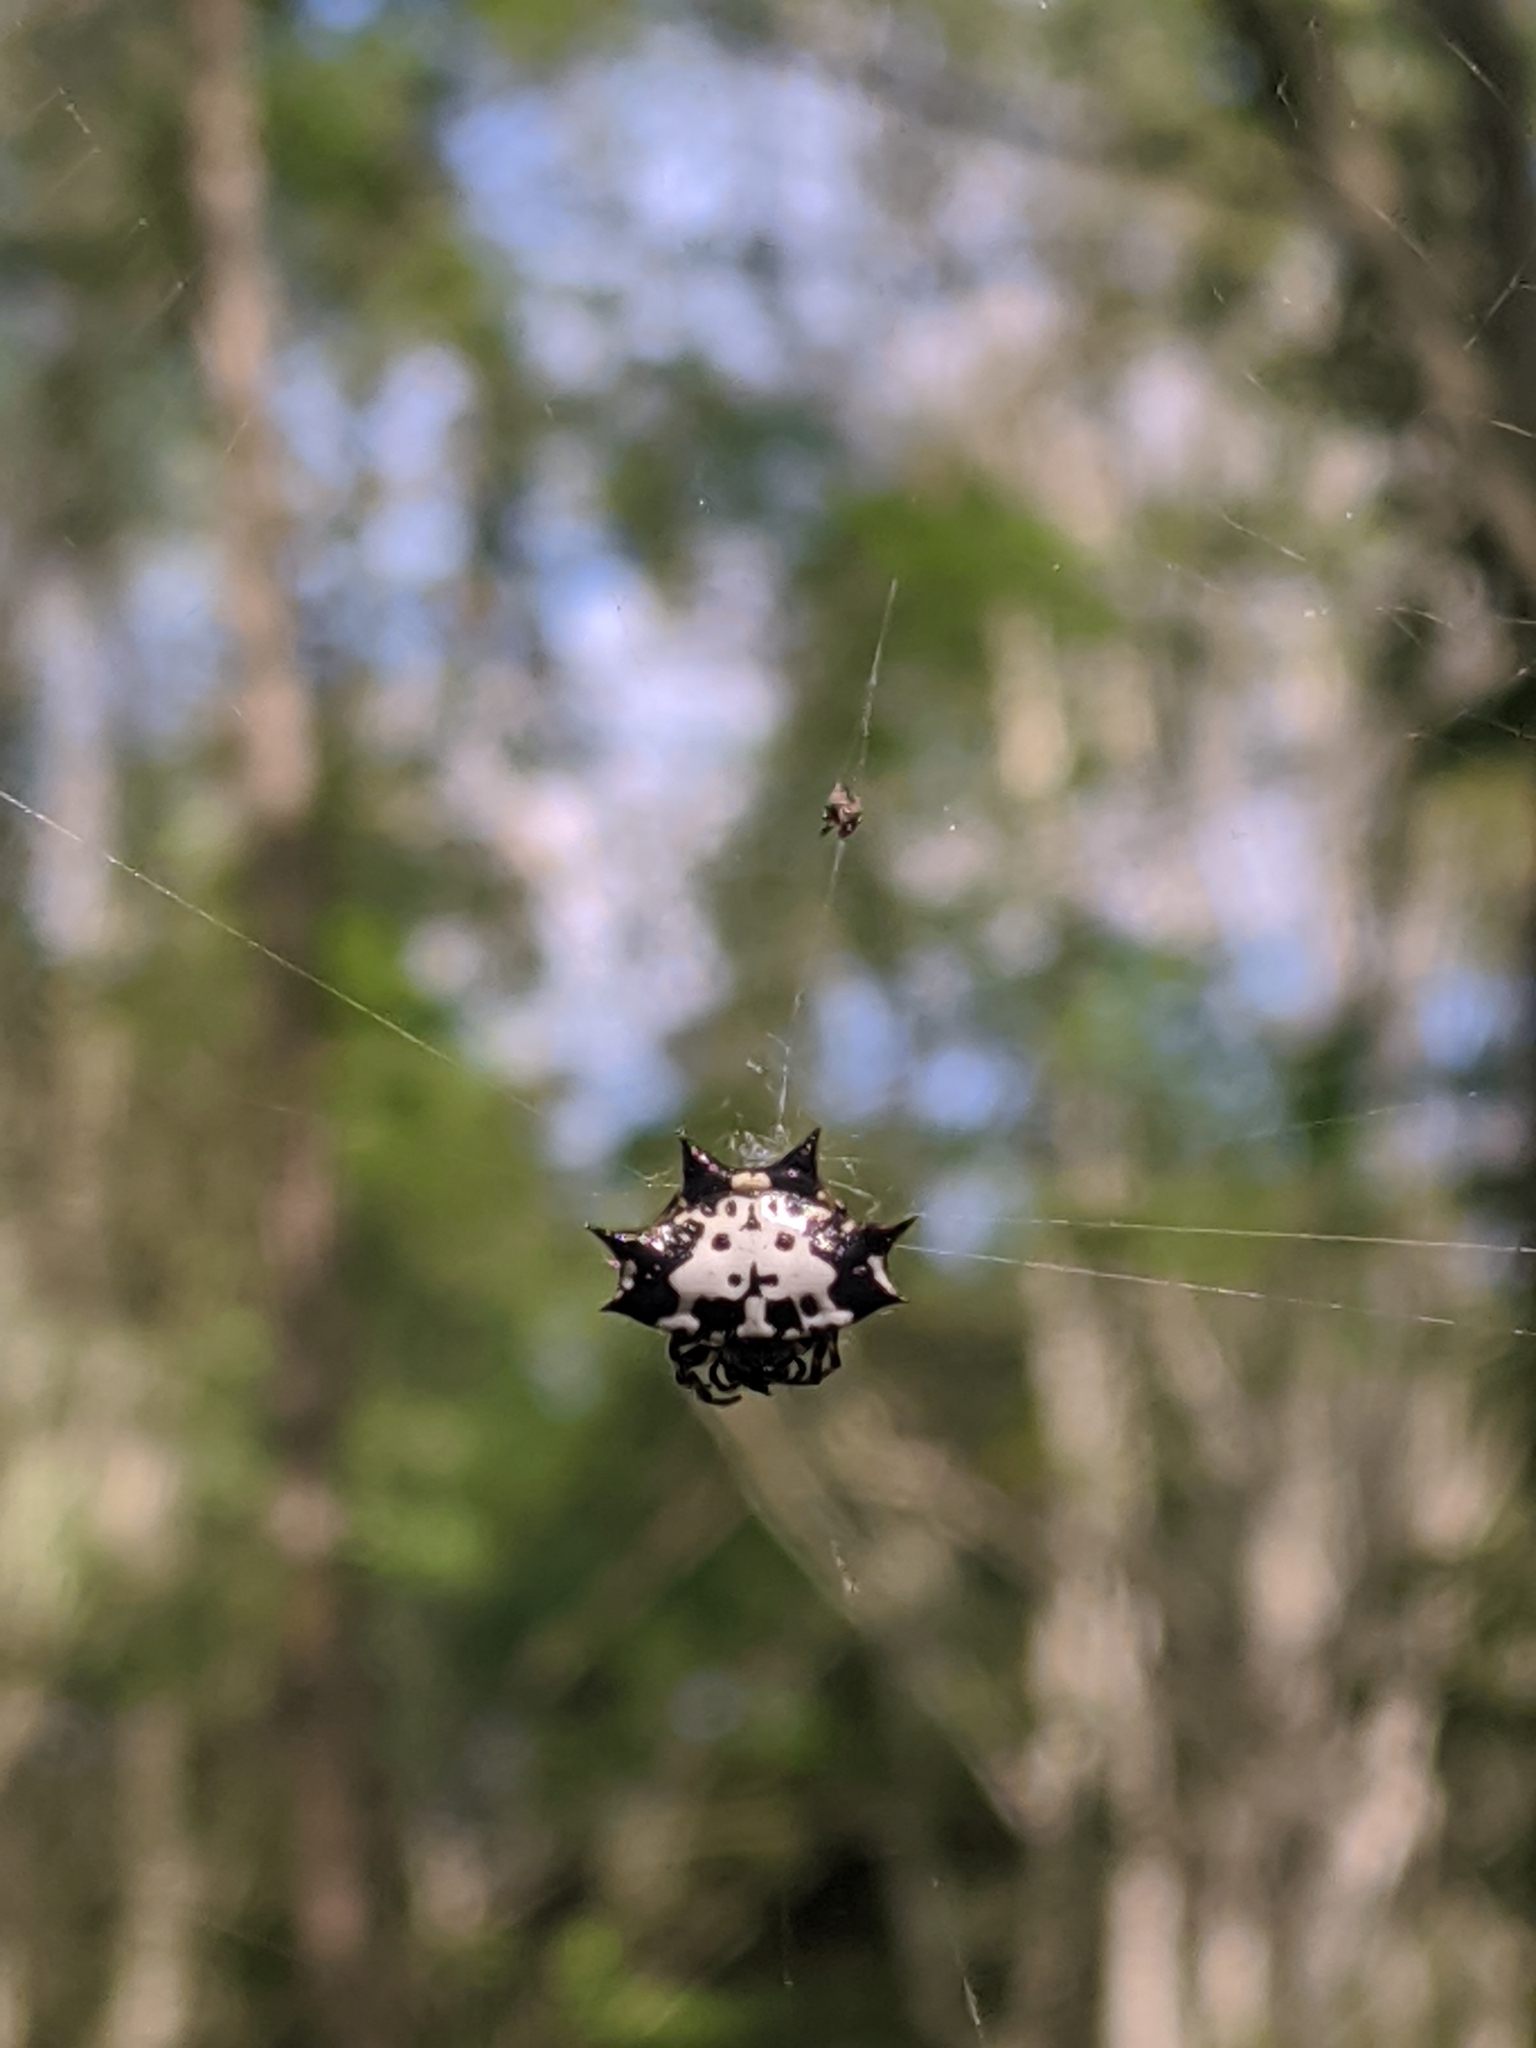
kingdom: Animalia
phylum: Arthropoda
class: Arachnida
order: Araneae
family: Araneidae
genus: Gasteracantha
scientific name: Gasteracantha kuhli
